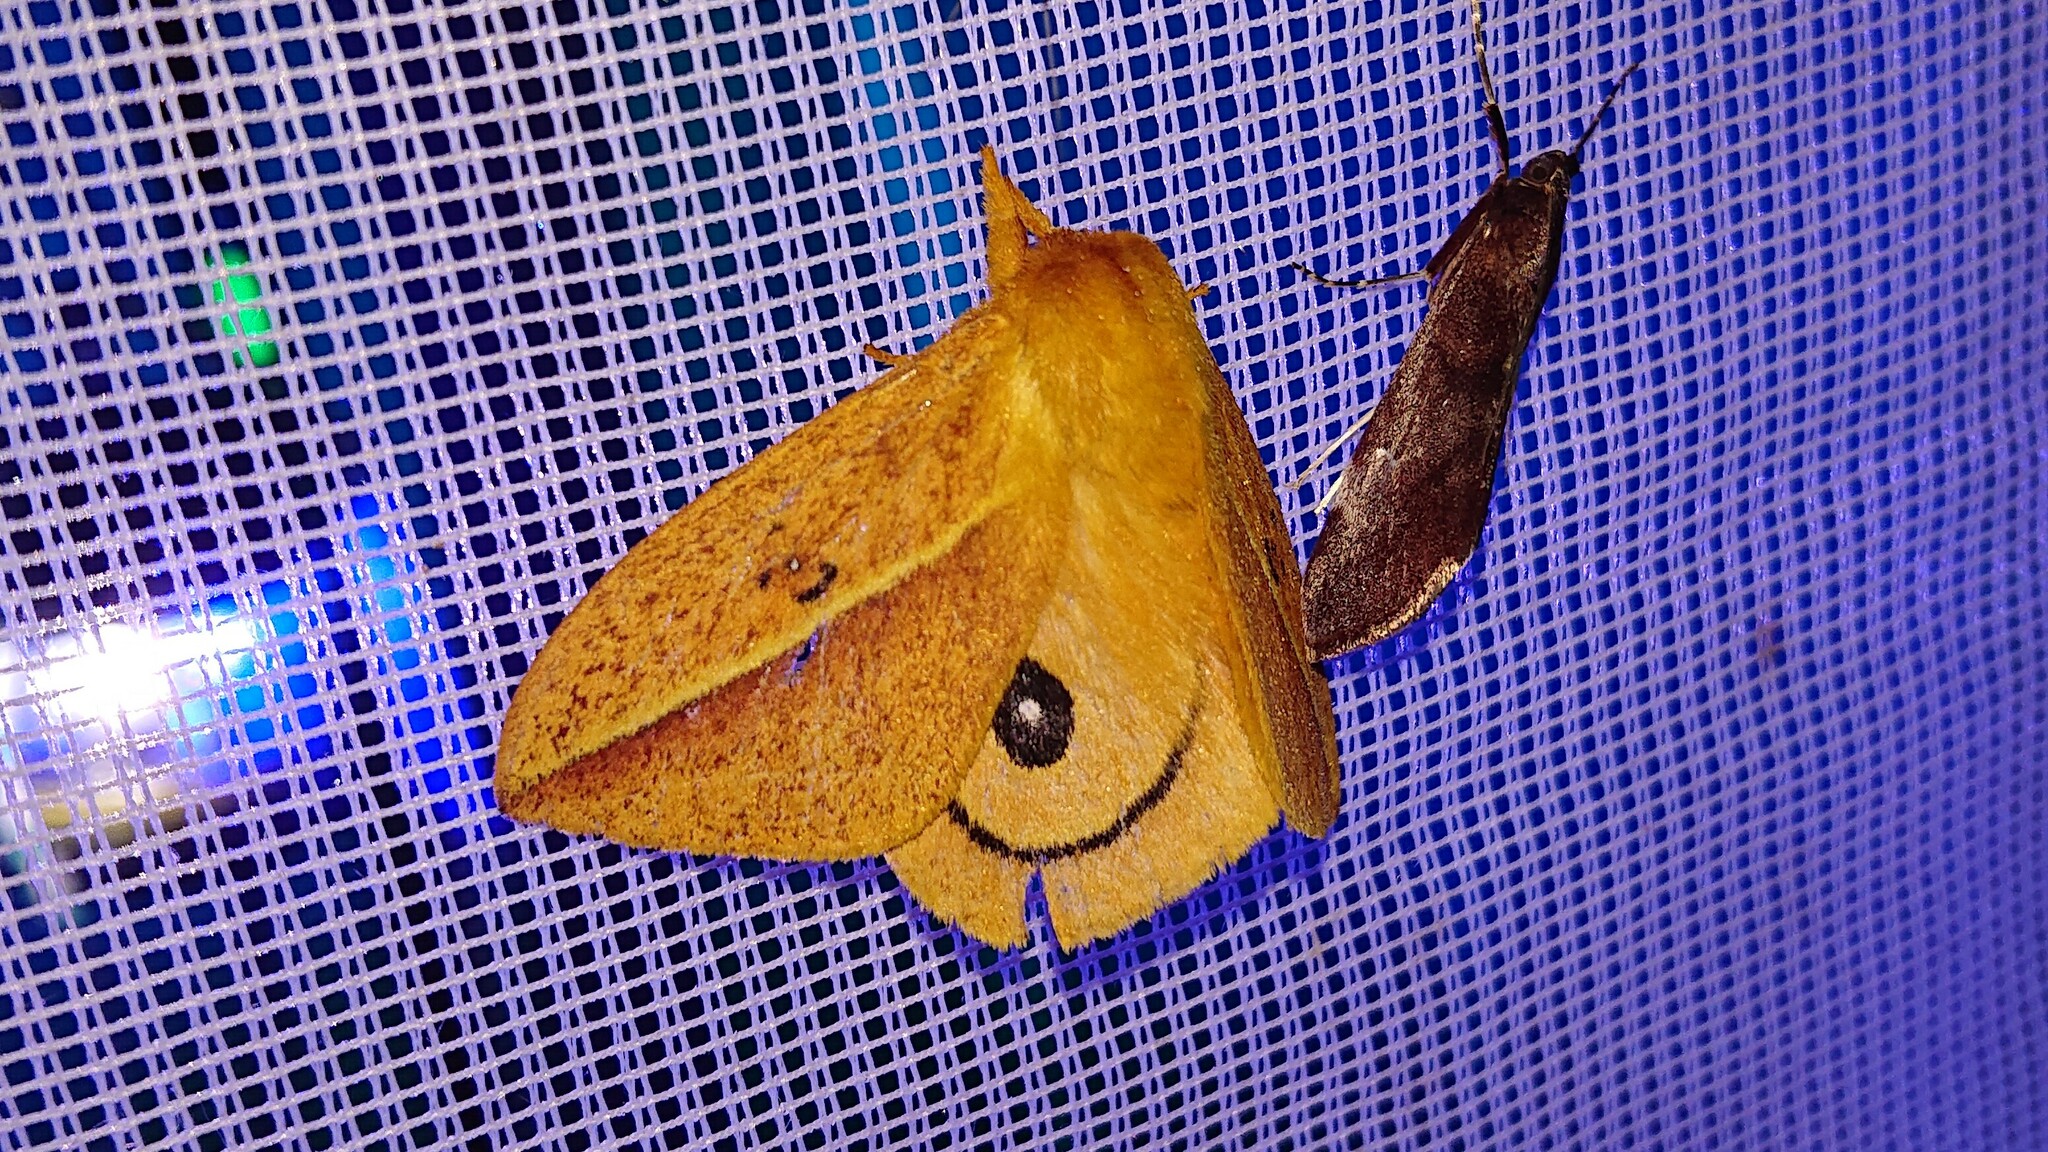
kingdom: Animalia
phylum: Arthropoda
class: Insecta
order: Lepidoptera
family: Saturniidae
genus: Automeris
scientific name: Automeris grammodes
